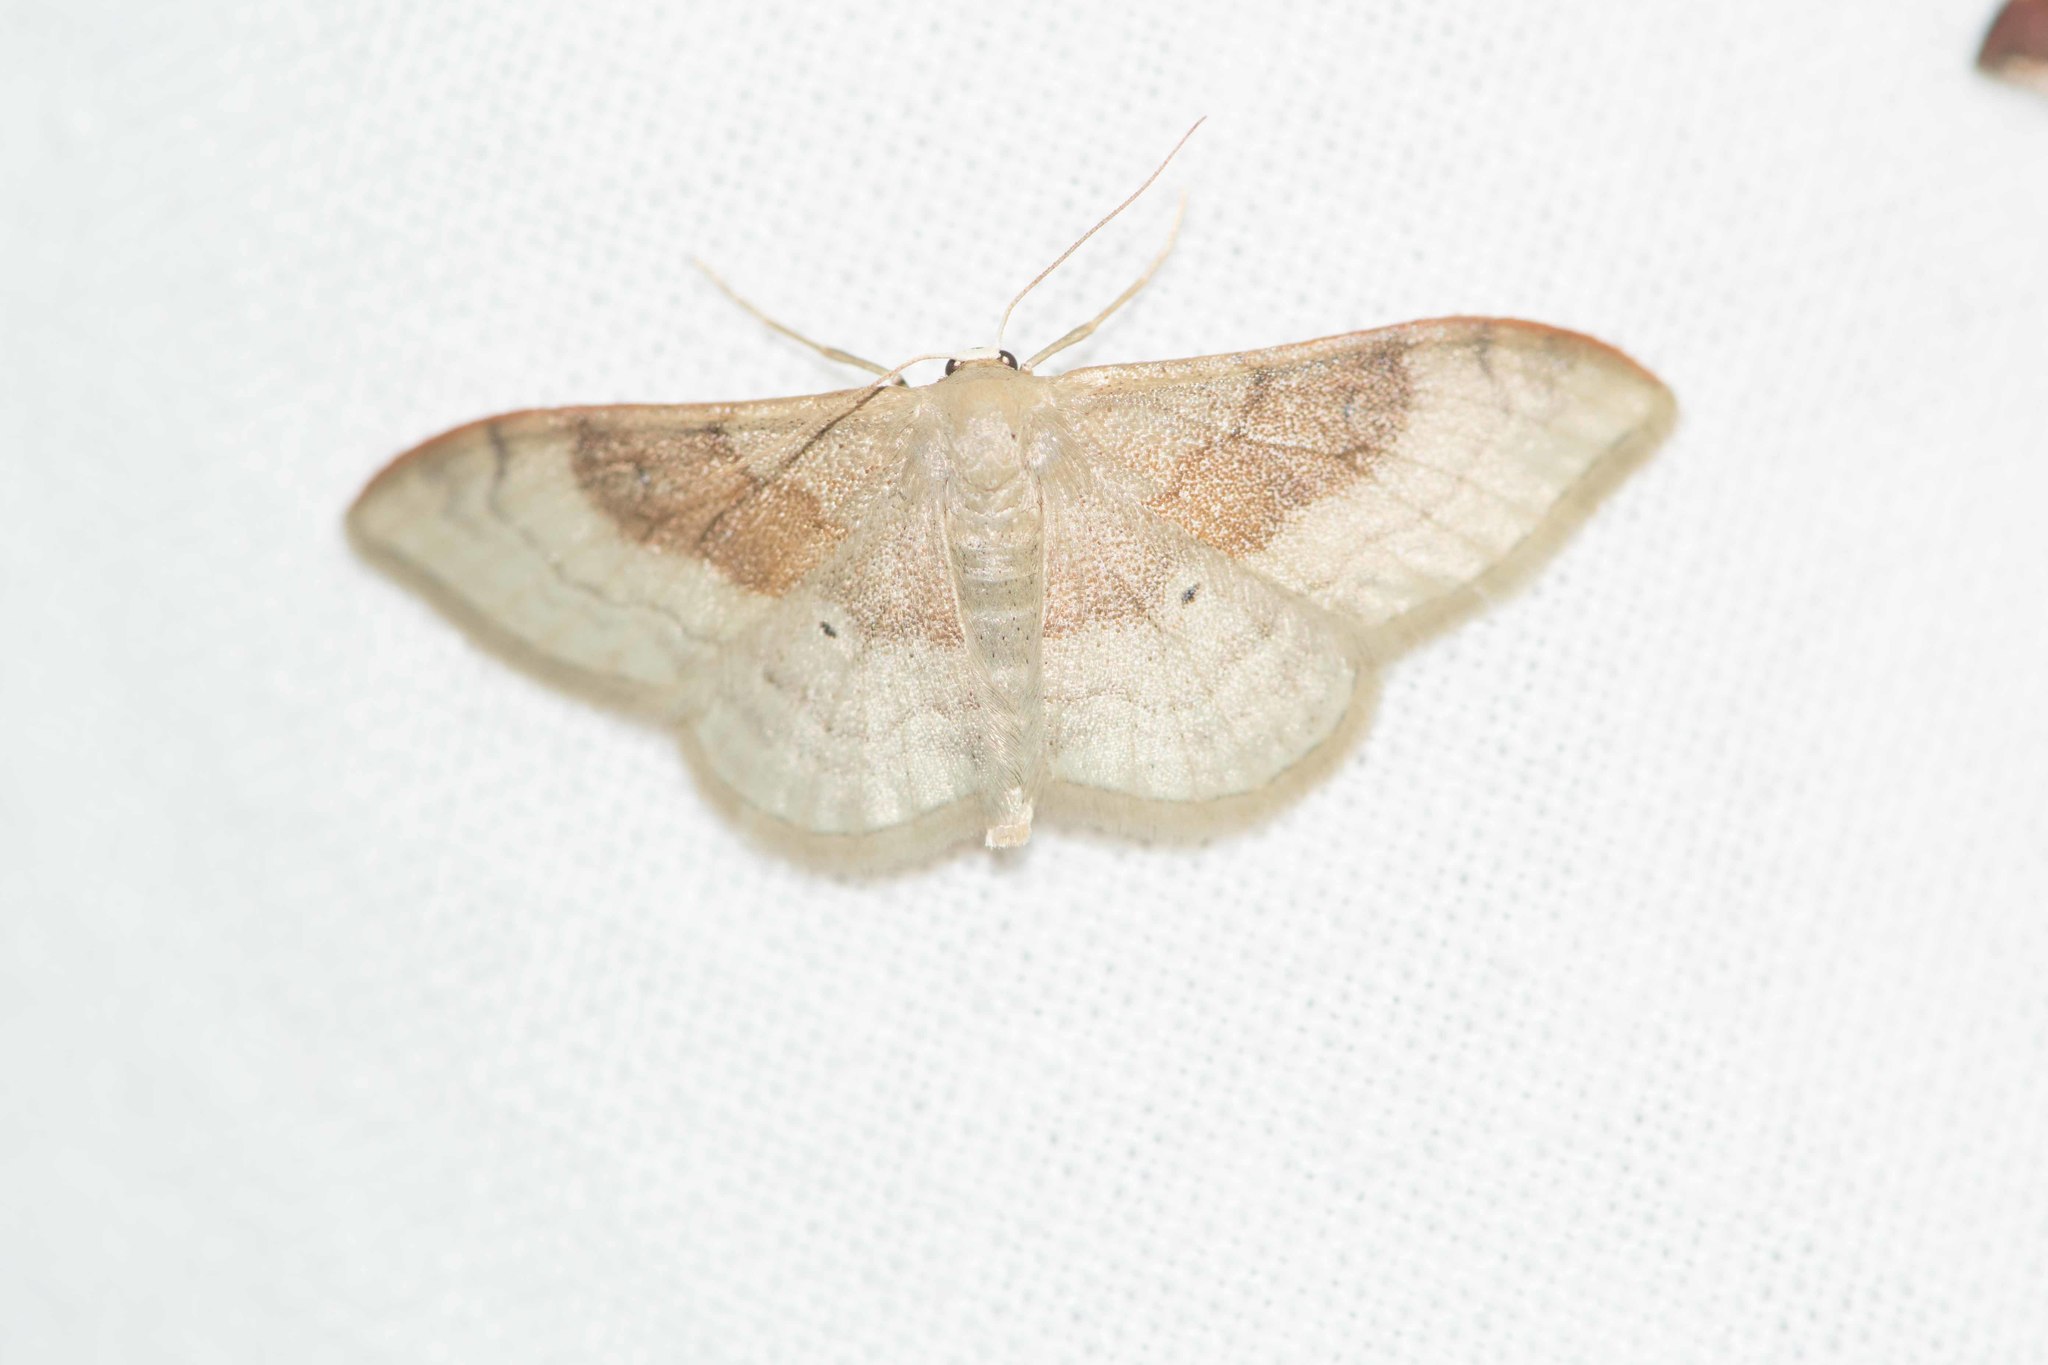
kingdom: Animalia
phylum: Arthropoda
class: Insecta
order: Lepidoptera
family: Geometridae
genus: Idaea
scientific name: Idaea degeneraria
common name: Portland ribbon wave
